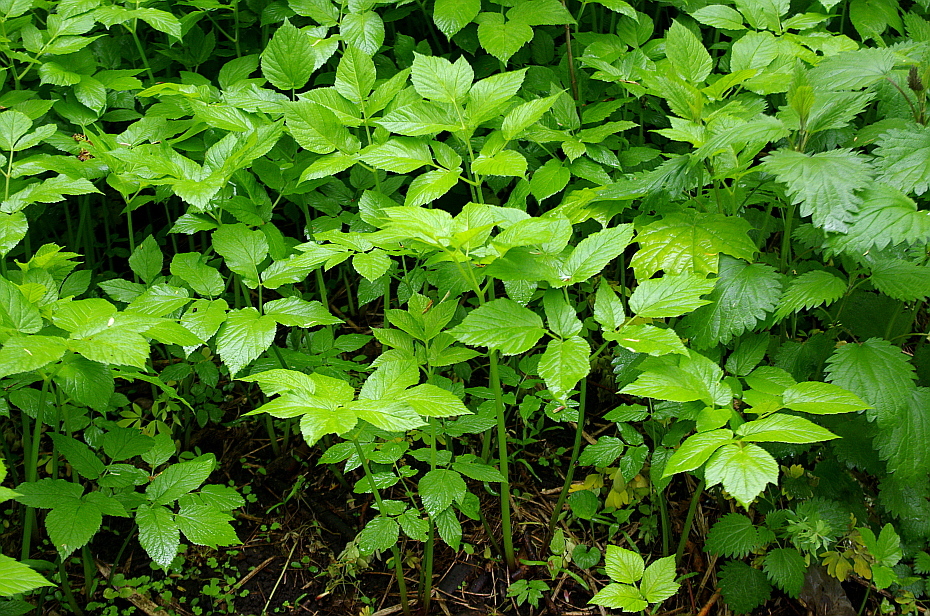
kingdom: Plantae
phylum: Tracheophyta
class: Magnoliopsida
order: Apiales
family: Apiaceae
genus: Aegopodium
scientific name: Aegopodium podagraria
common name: Ground-elder
